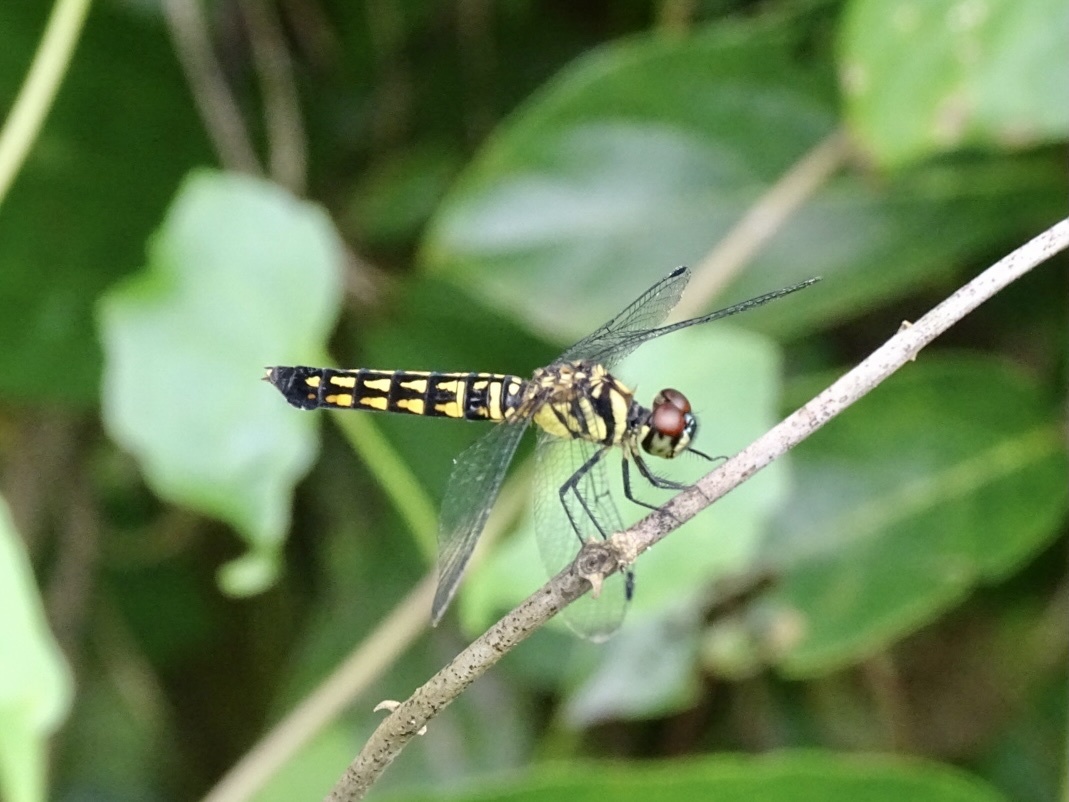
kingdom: Animalia
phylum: Arthropoda
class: Insecta
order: Odonata
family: Libellulidae
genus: Lyriothemis
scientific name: Lyriothemis elegantissima
